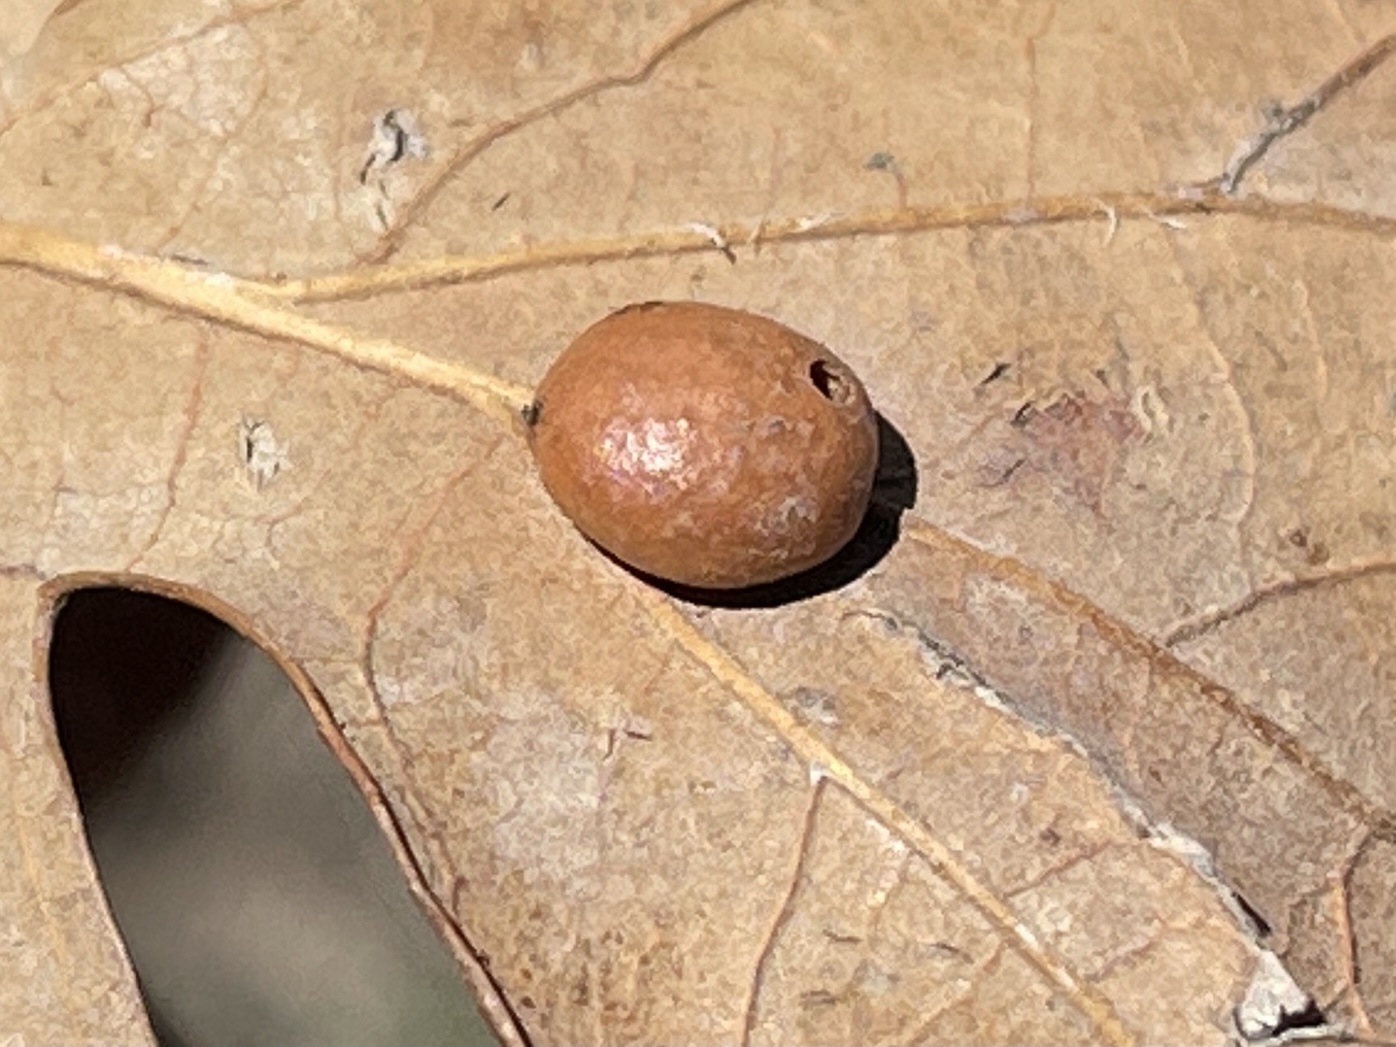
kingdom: Animalia
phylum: Arthropoda
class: Insecta
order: Hymenoptera
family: Cynipidae
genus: Trigonaspis
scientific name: Trigonaspis
